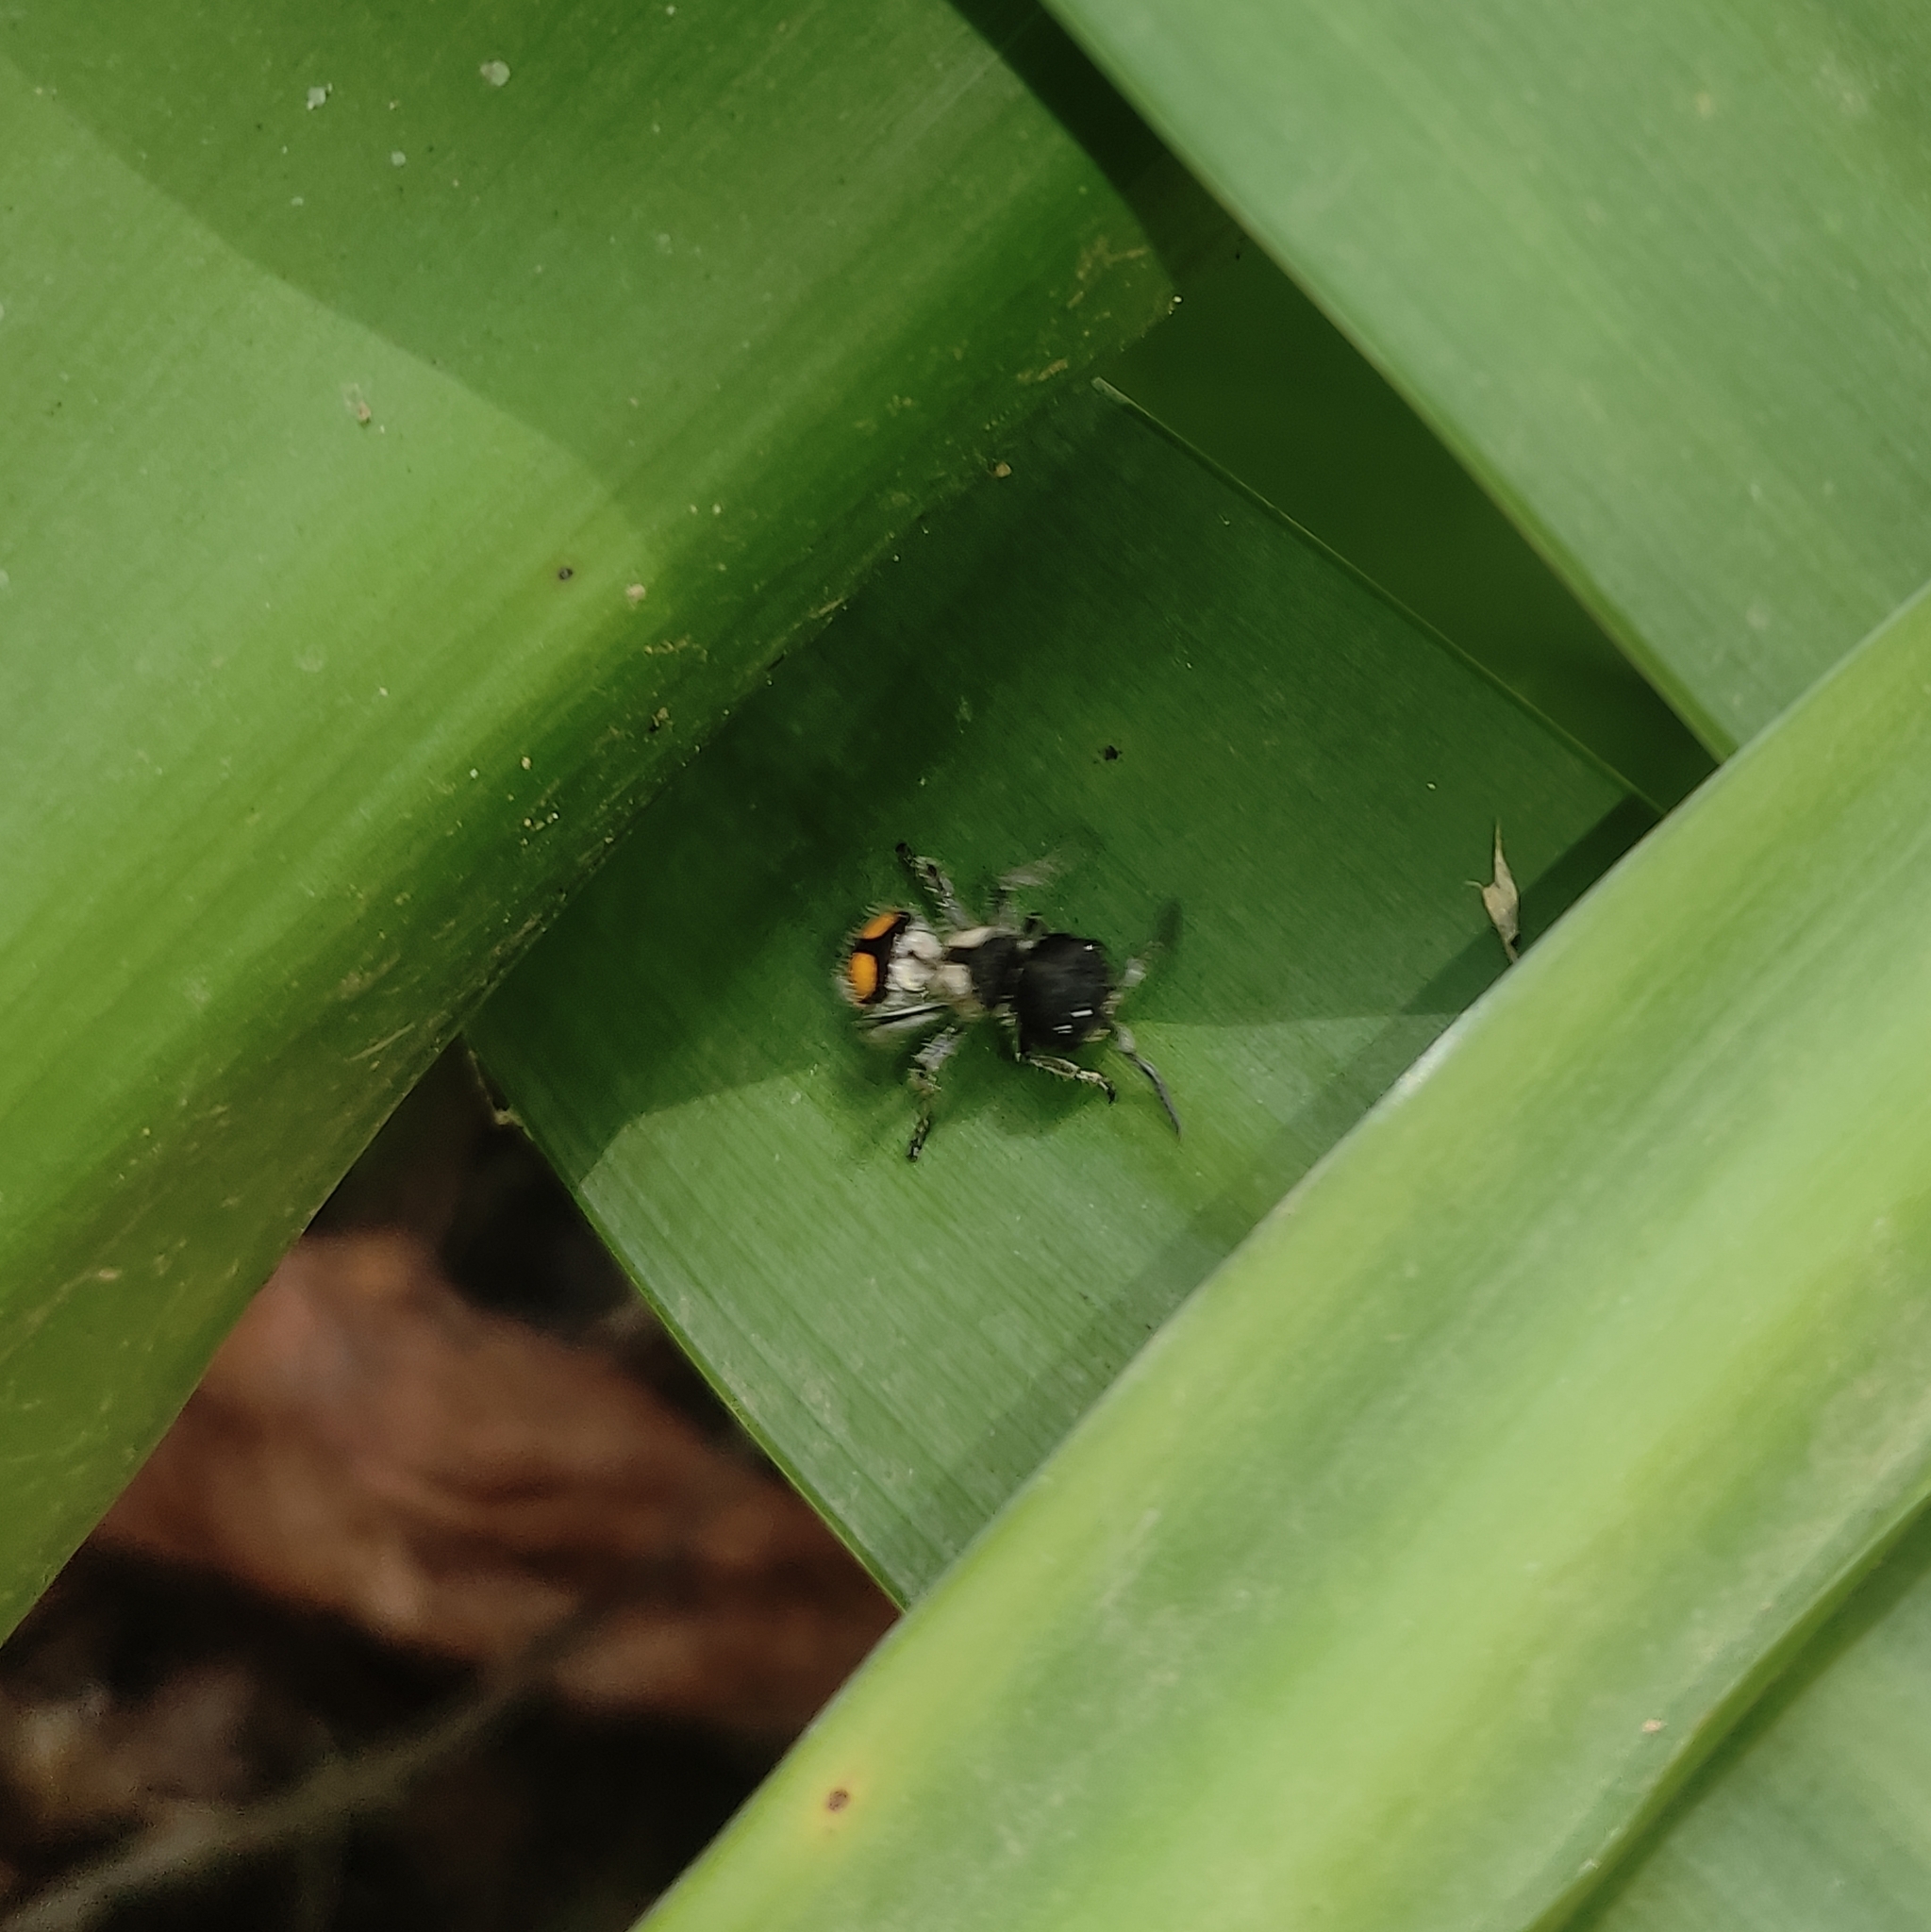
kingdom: Animalia
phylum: Arthropoda
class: Insecta
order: Hymenoptera
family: Mutillidae
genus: Pappognatha
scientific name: Pappognatha
